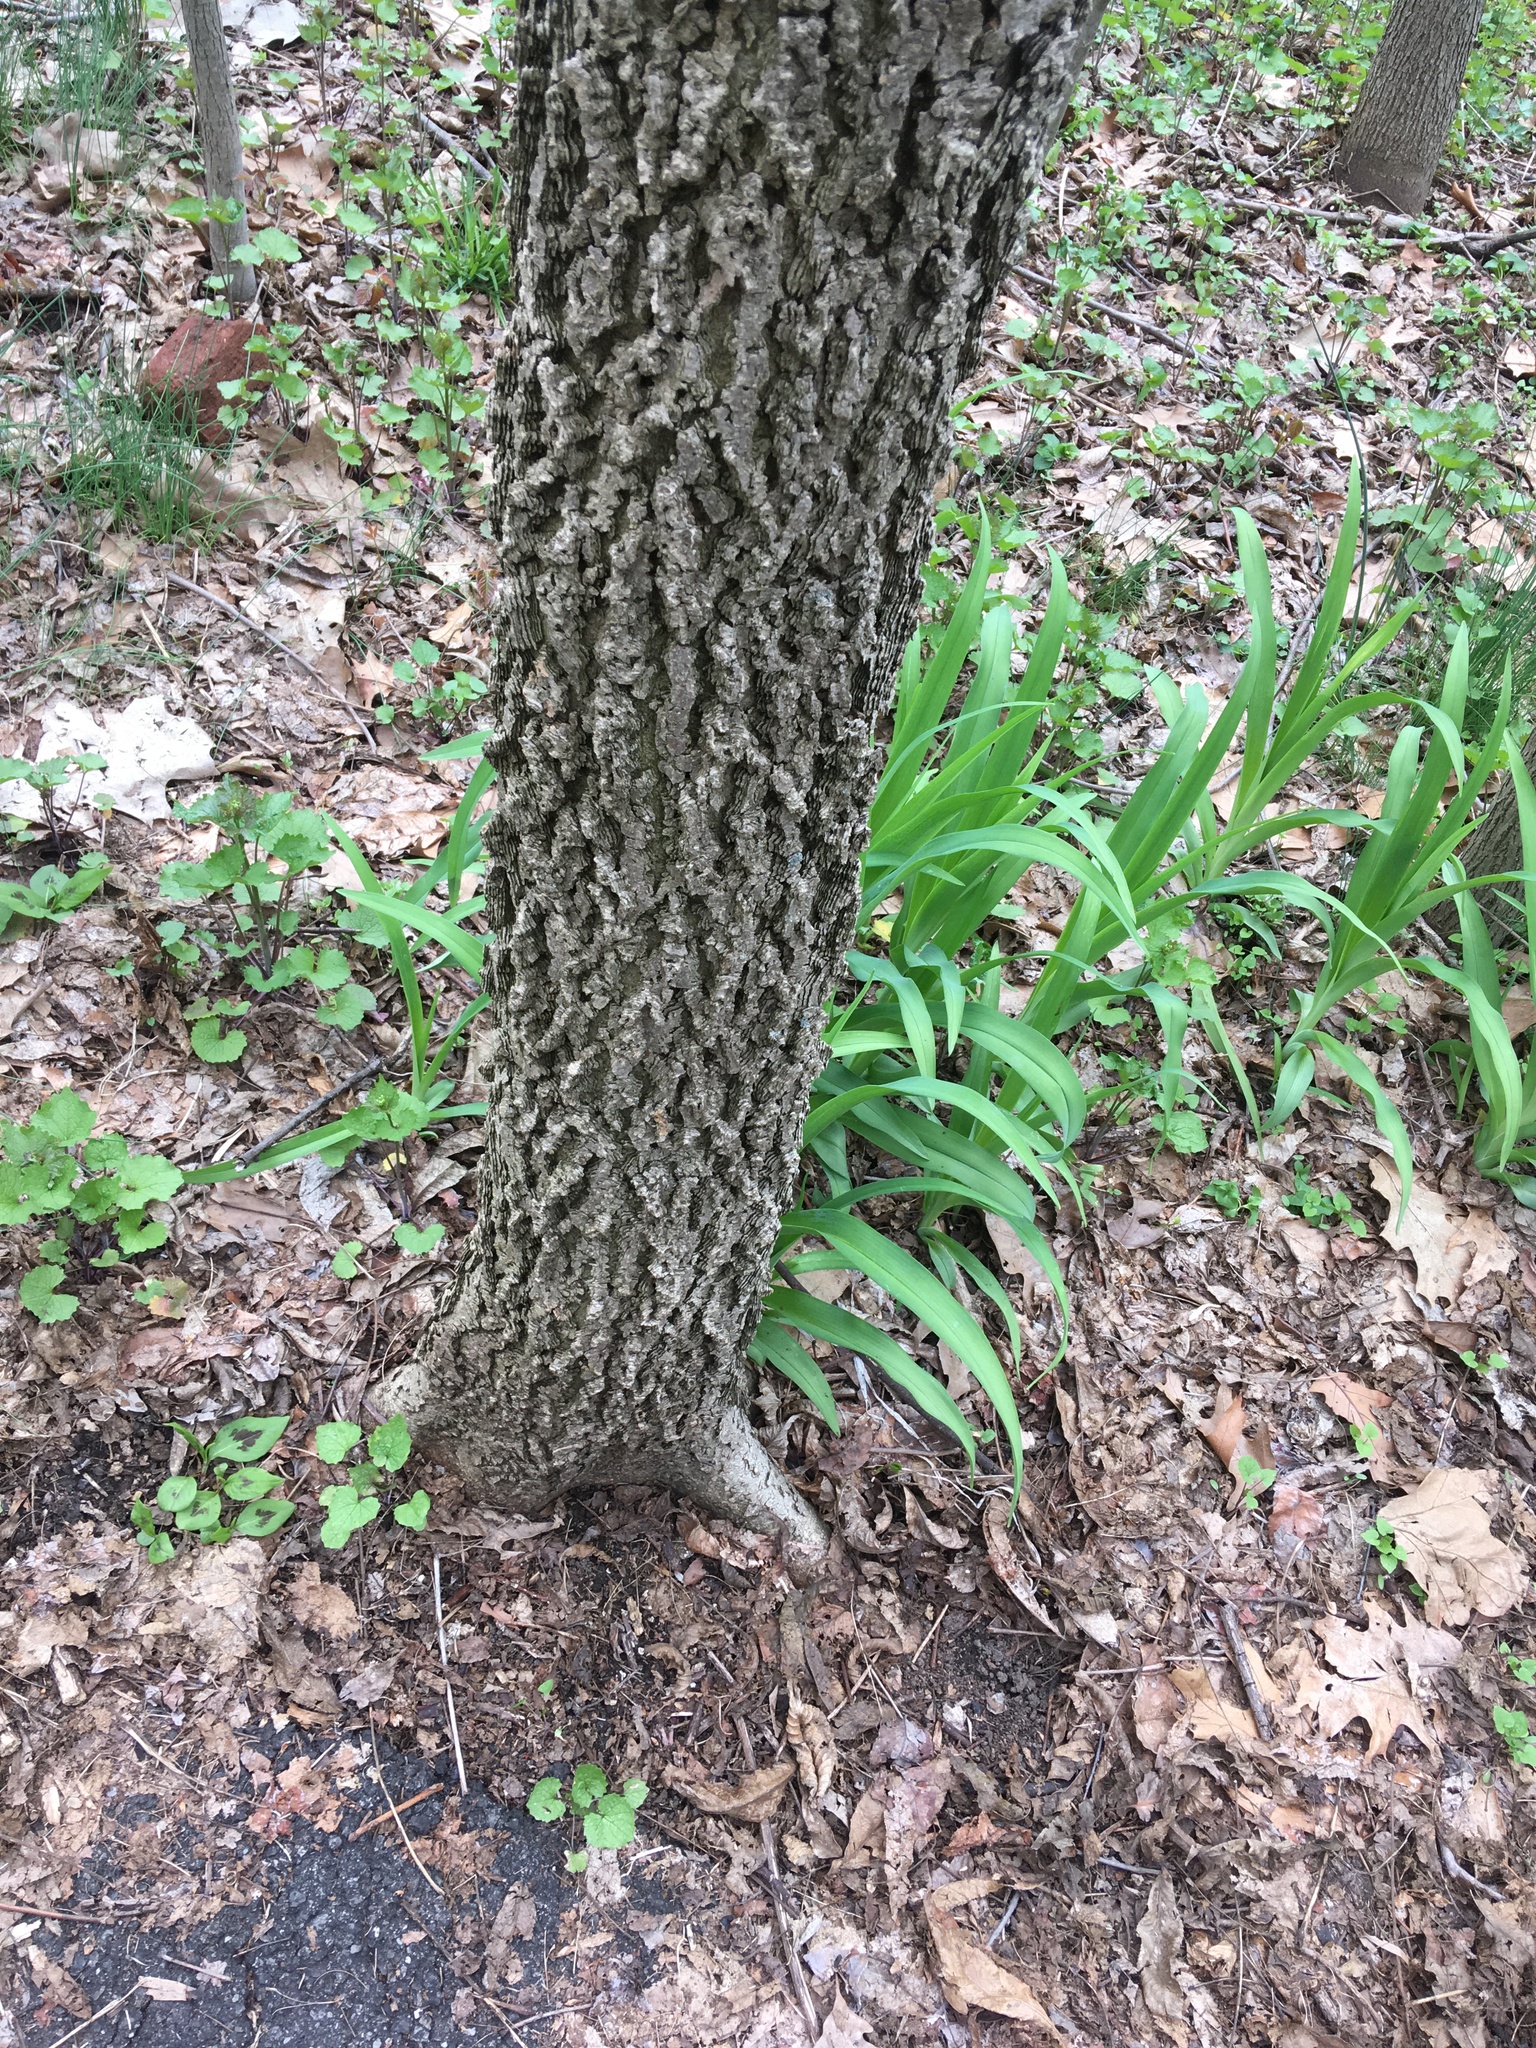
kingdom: Plantae
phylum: Tracheophyta
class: Magnoliopsida
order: Rosales
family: Cannabaceae
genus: Celtis
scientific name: Celtis occidentalis
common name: Common hackberry
